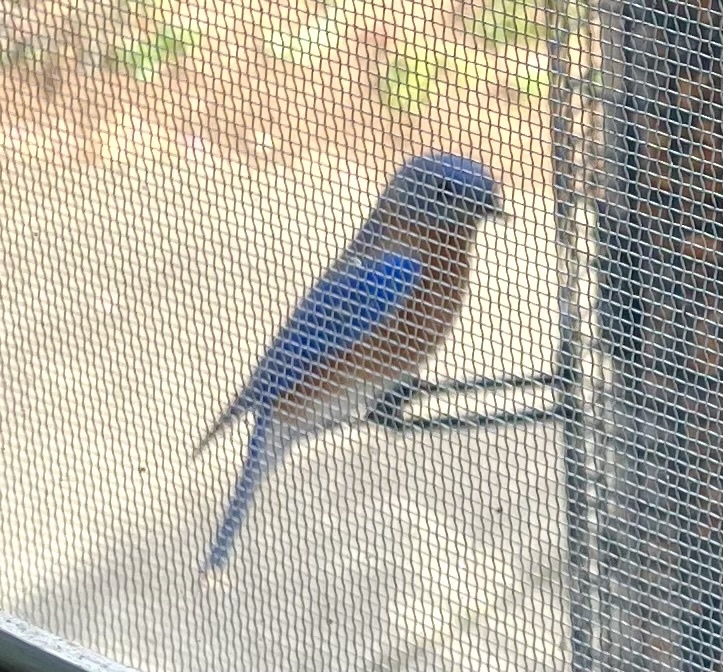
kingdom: Animalia
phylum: Chordata
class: Aves
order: Passeriformes
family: Turdidae
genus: Sialia
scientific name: Sialia sialis
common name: Eastern bluebird
